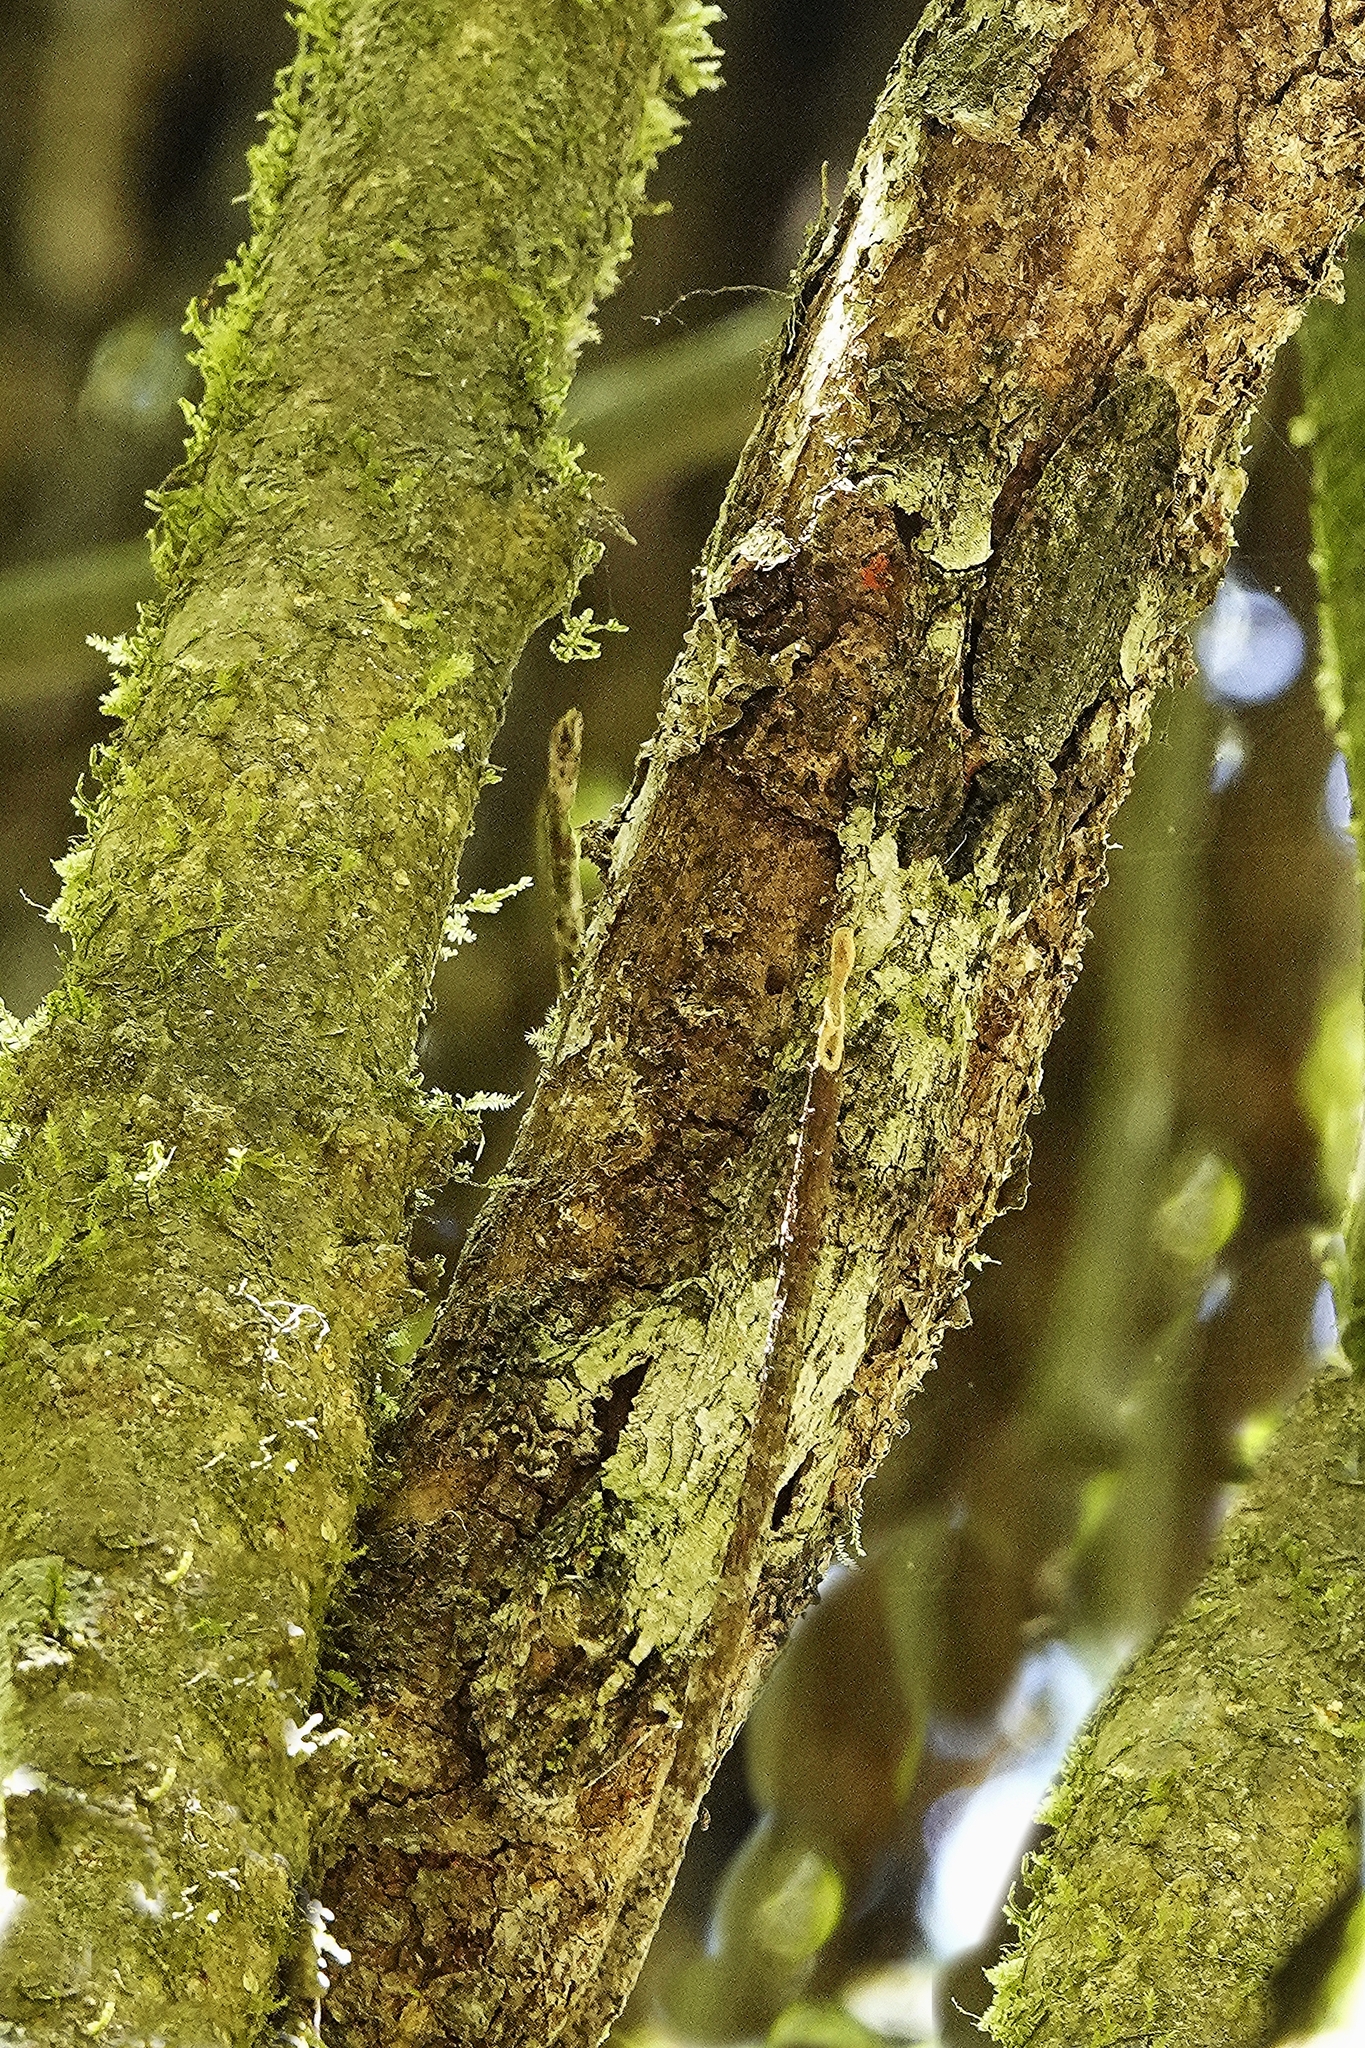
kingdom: Animalia
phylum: Chordata
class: Squamata
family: Gekkonidae
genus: Uroplatus
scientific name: Uroplatus sikorae
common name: Southern flat-tail gecko
